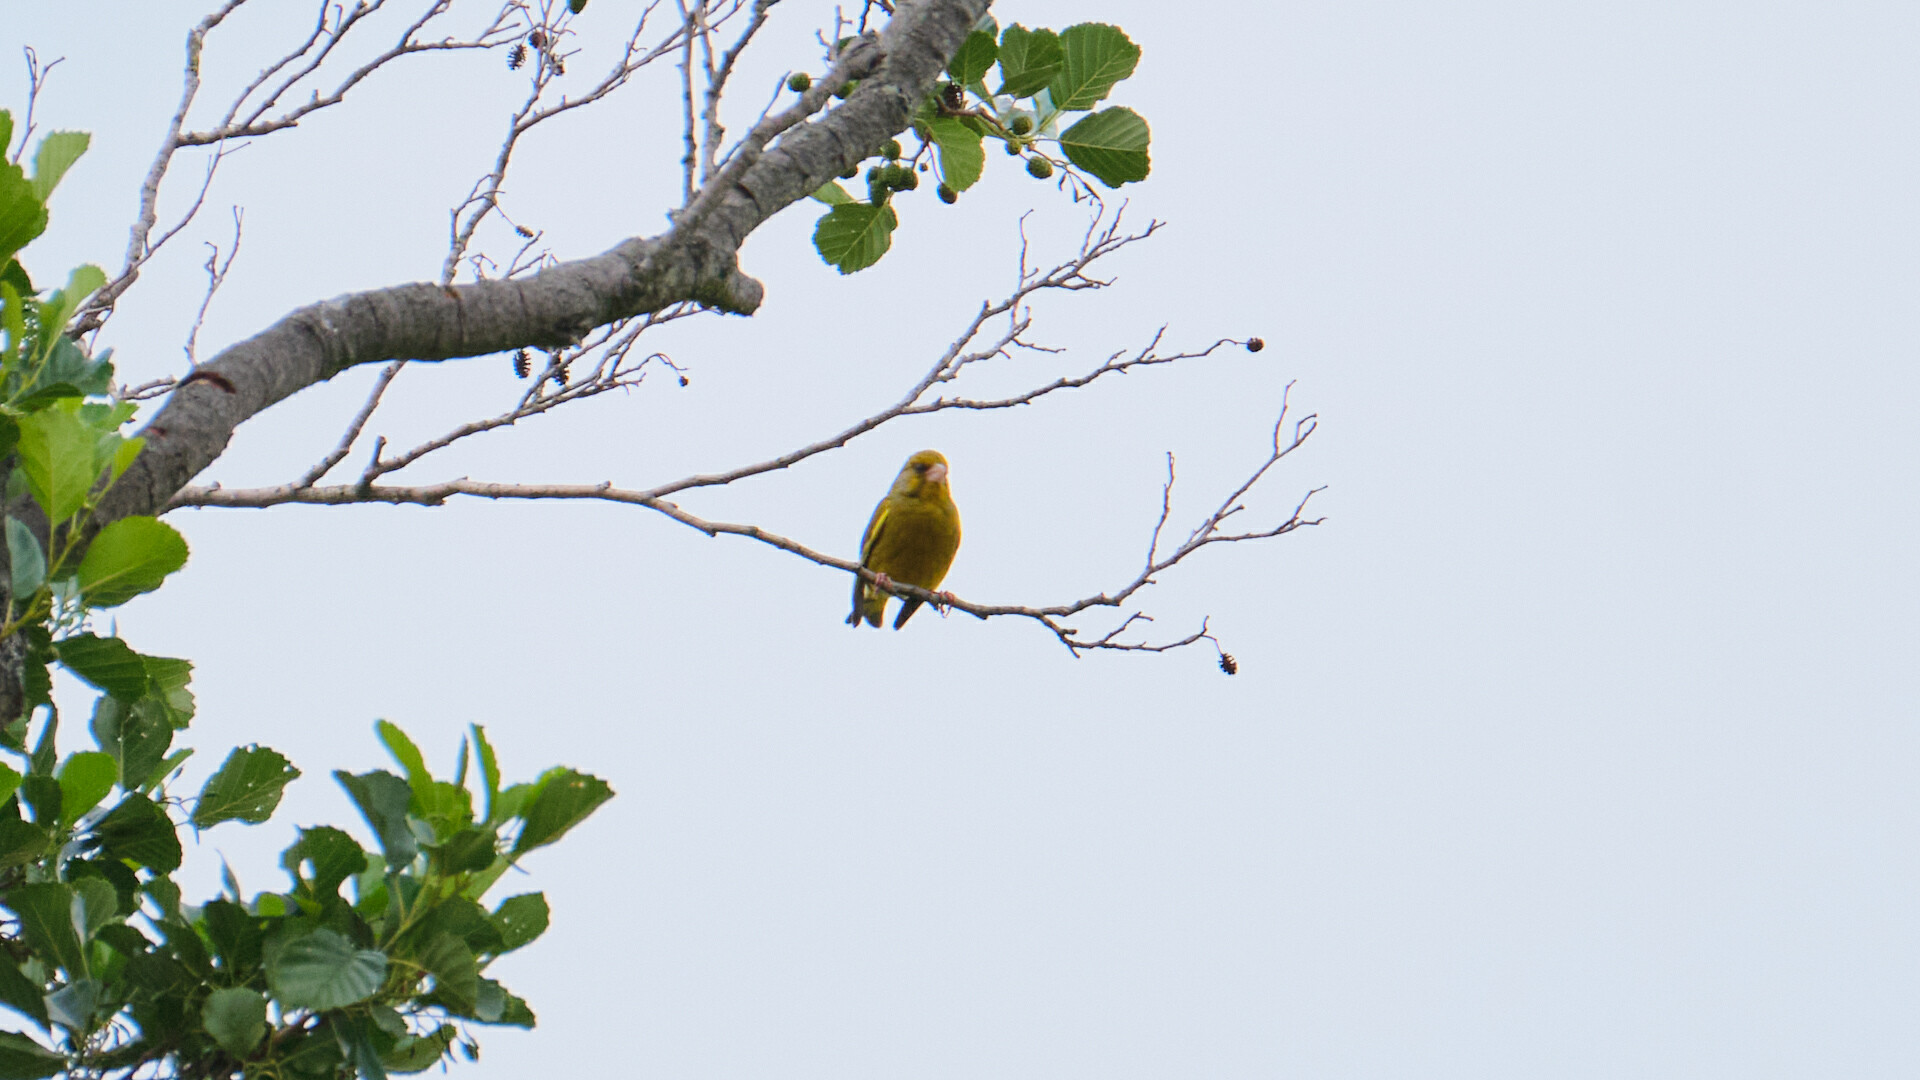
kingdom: Plantae
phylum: Tracheophyta
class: Liliopsida
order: Poales
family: Poaceae
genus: Chloris
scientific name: Chloris chloris
